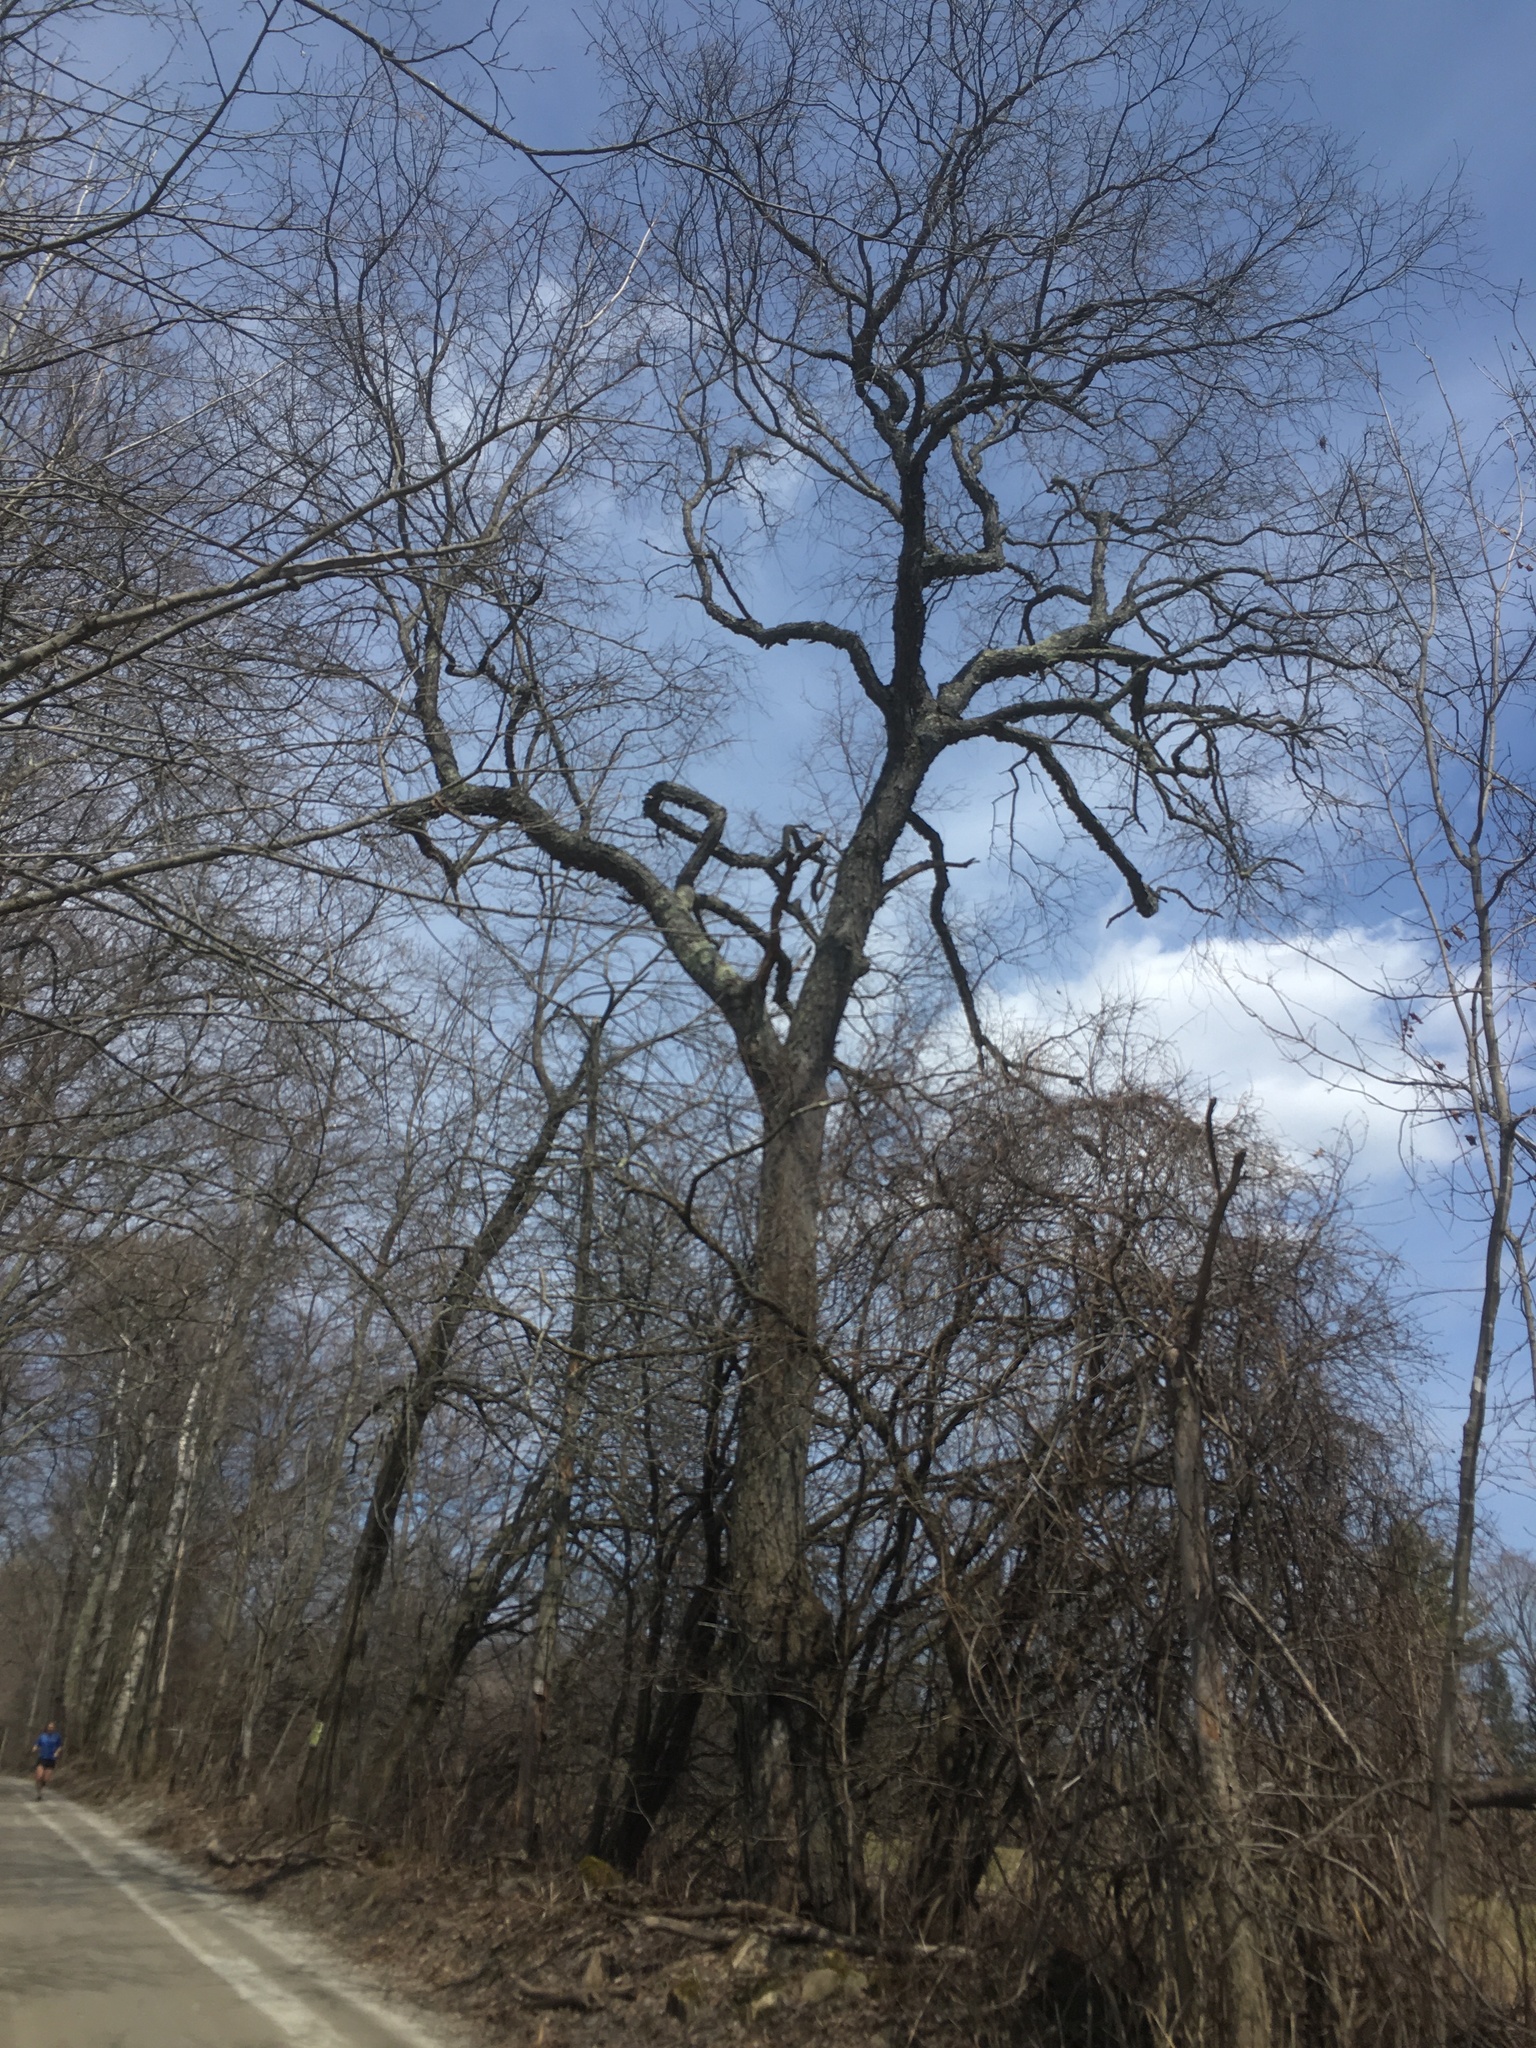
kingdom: Plantae
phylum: Tracheophyta
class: Magnoliopsida
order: Rosales
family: Rosaceae
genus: Prunus
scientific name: Prunus serotina
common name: Black cherry
